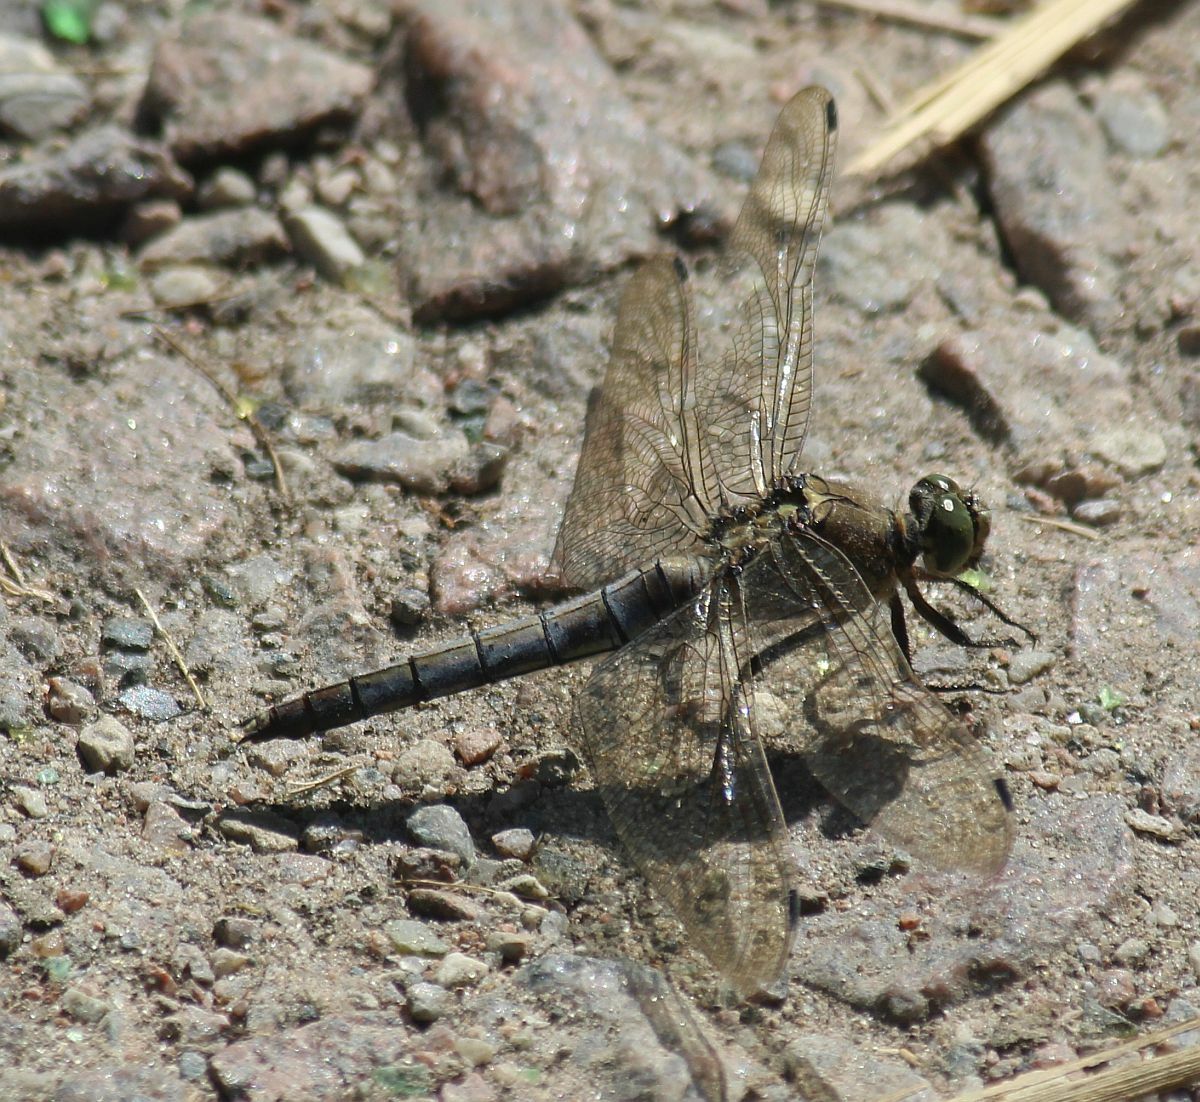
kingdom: Animalia
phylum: Arthropoda
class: Insecta
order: Odonata
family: Libellulidae
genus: Orthetrum
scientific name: Orthetrum cancellatum
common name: Black-tailed skimmer
